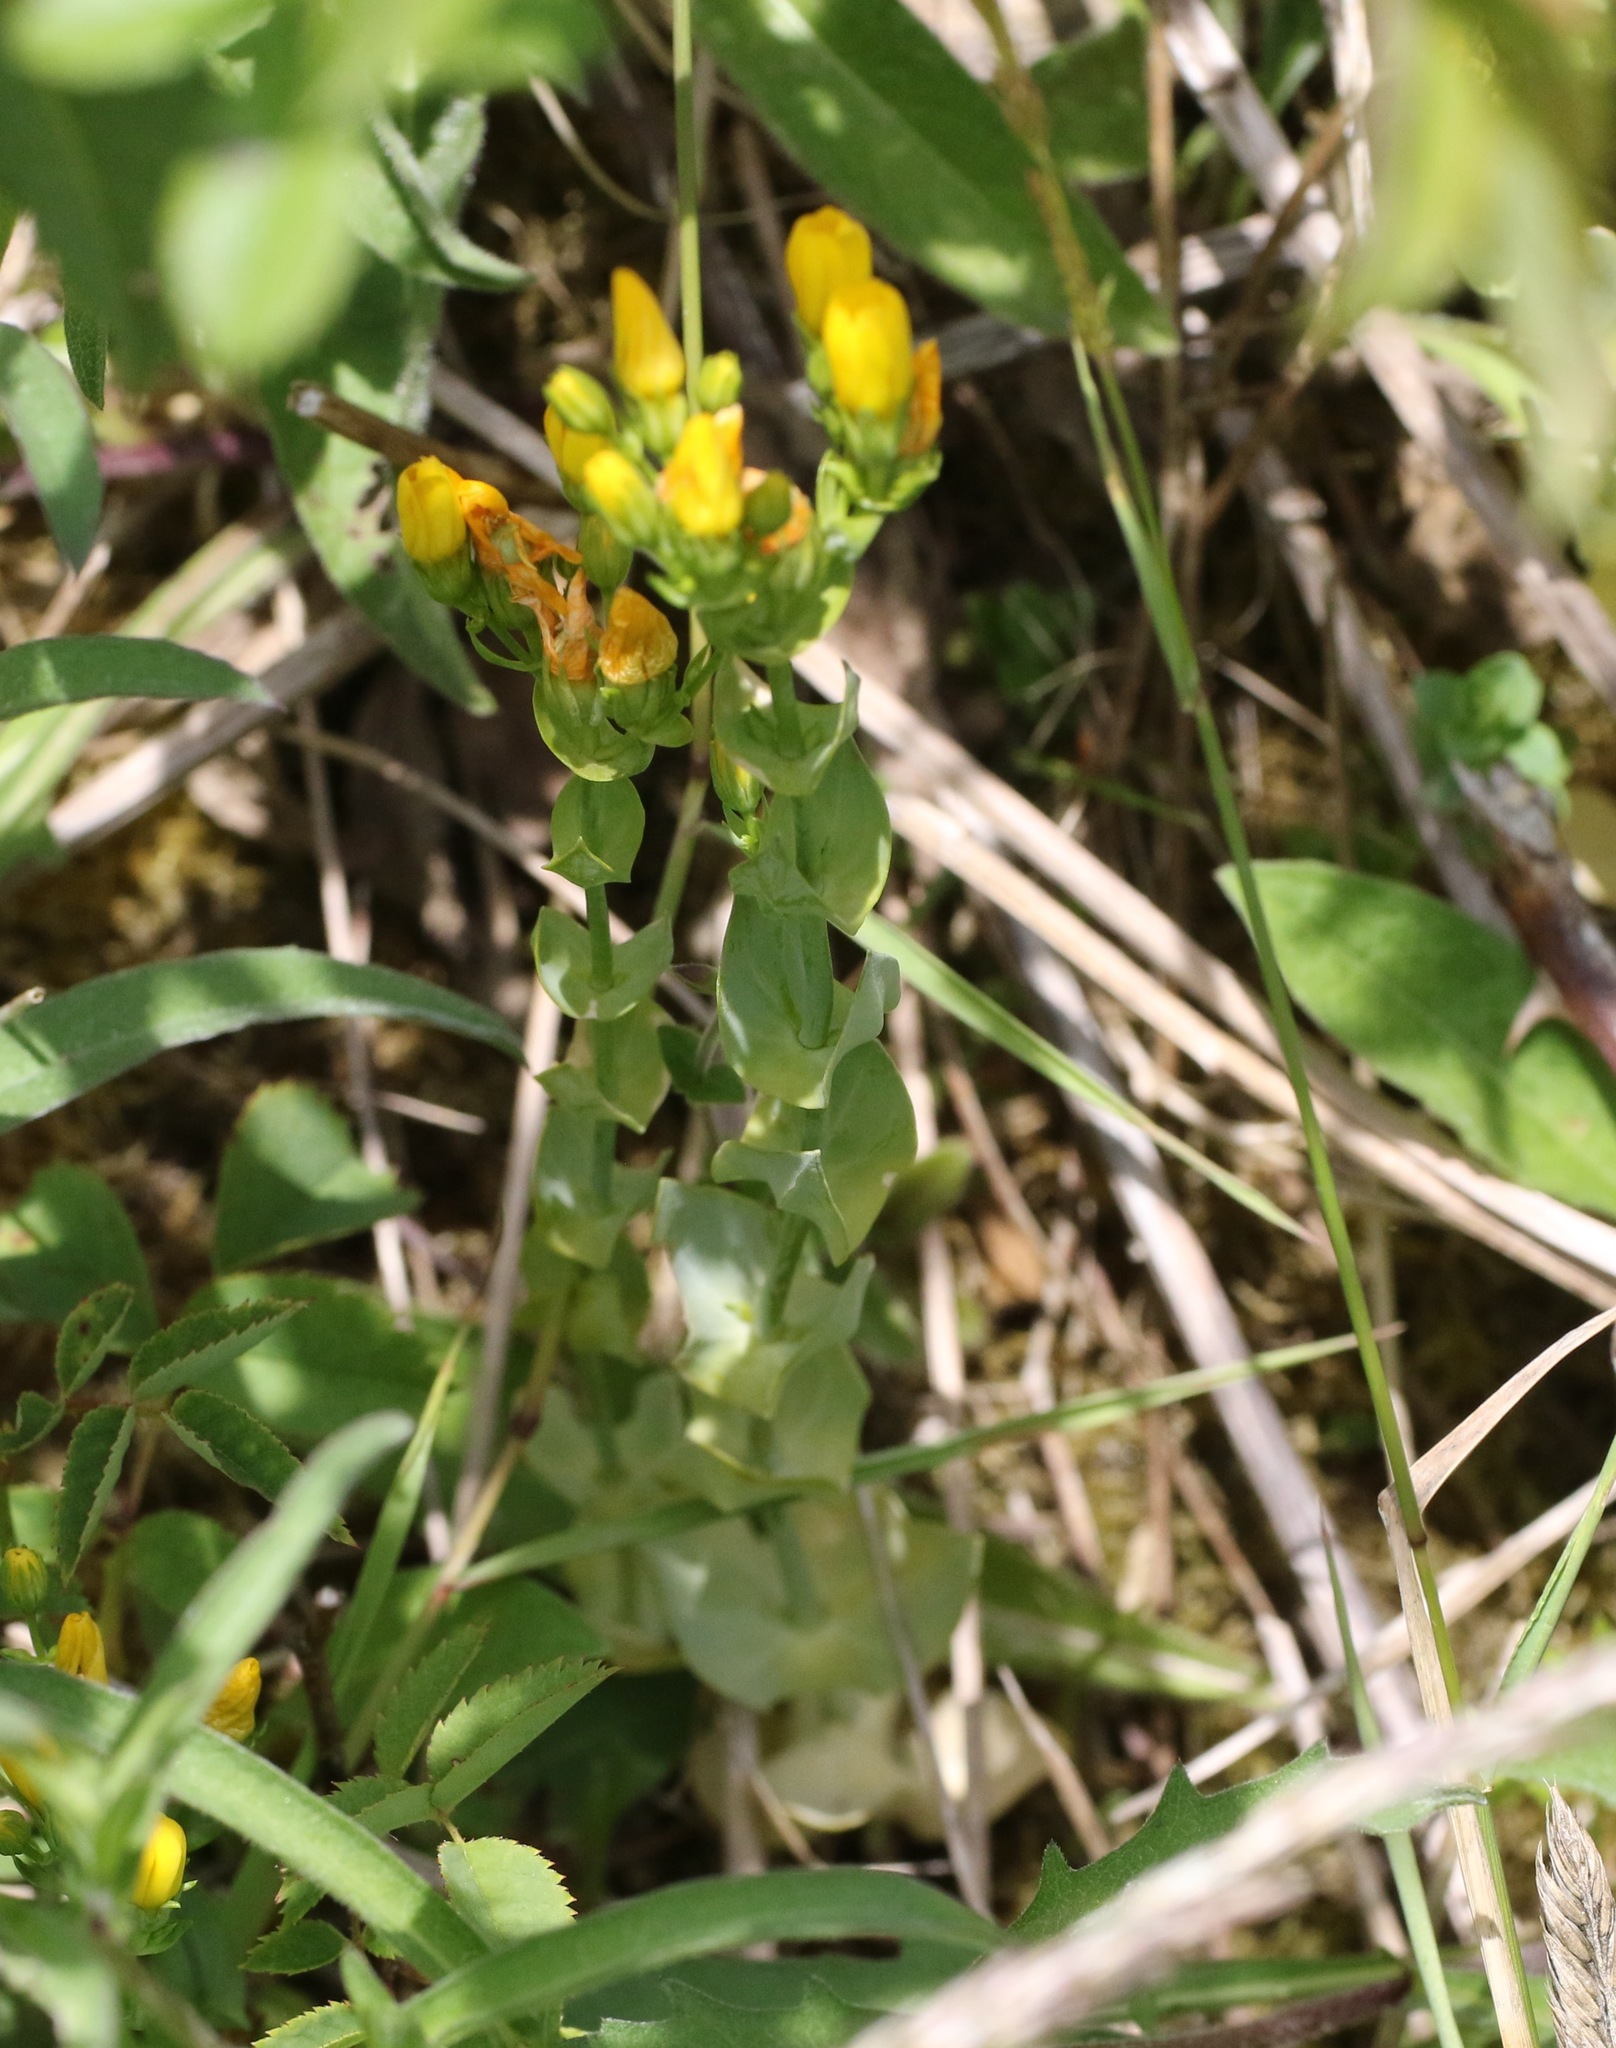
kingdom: Plantae
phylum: Tracheophyta
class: Magnoliopsida
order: Gentianales
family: Gentianaceae
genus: Blackstonia
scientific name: Blackstonia perfoliata
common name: Yellow-wort
